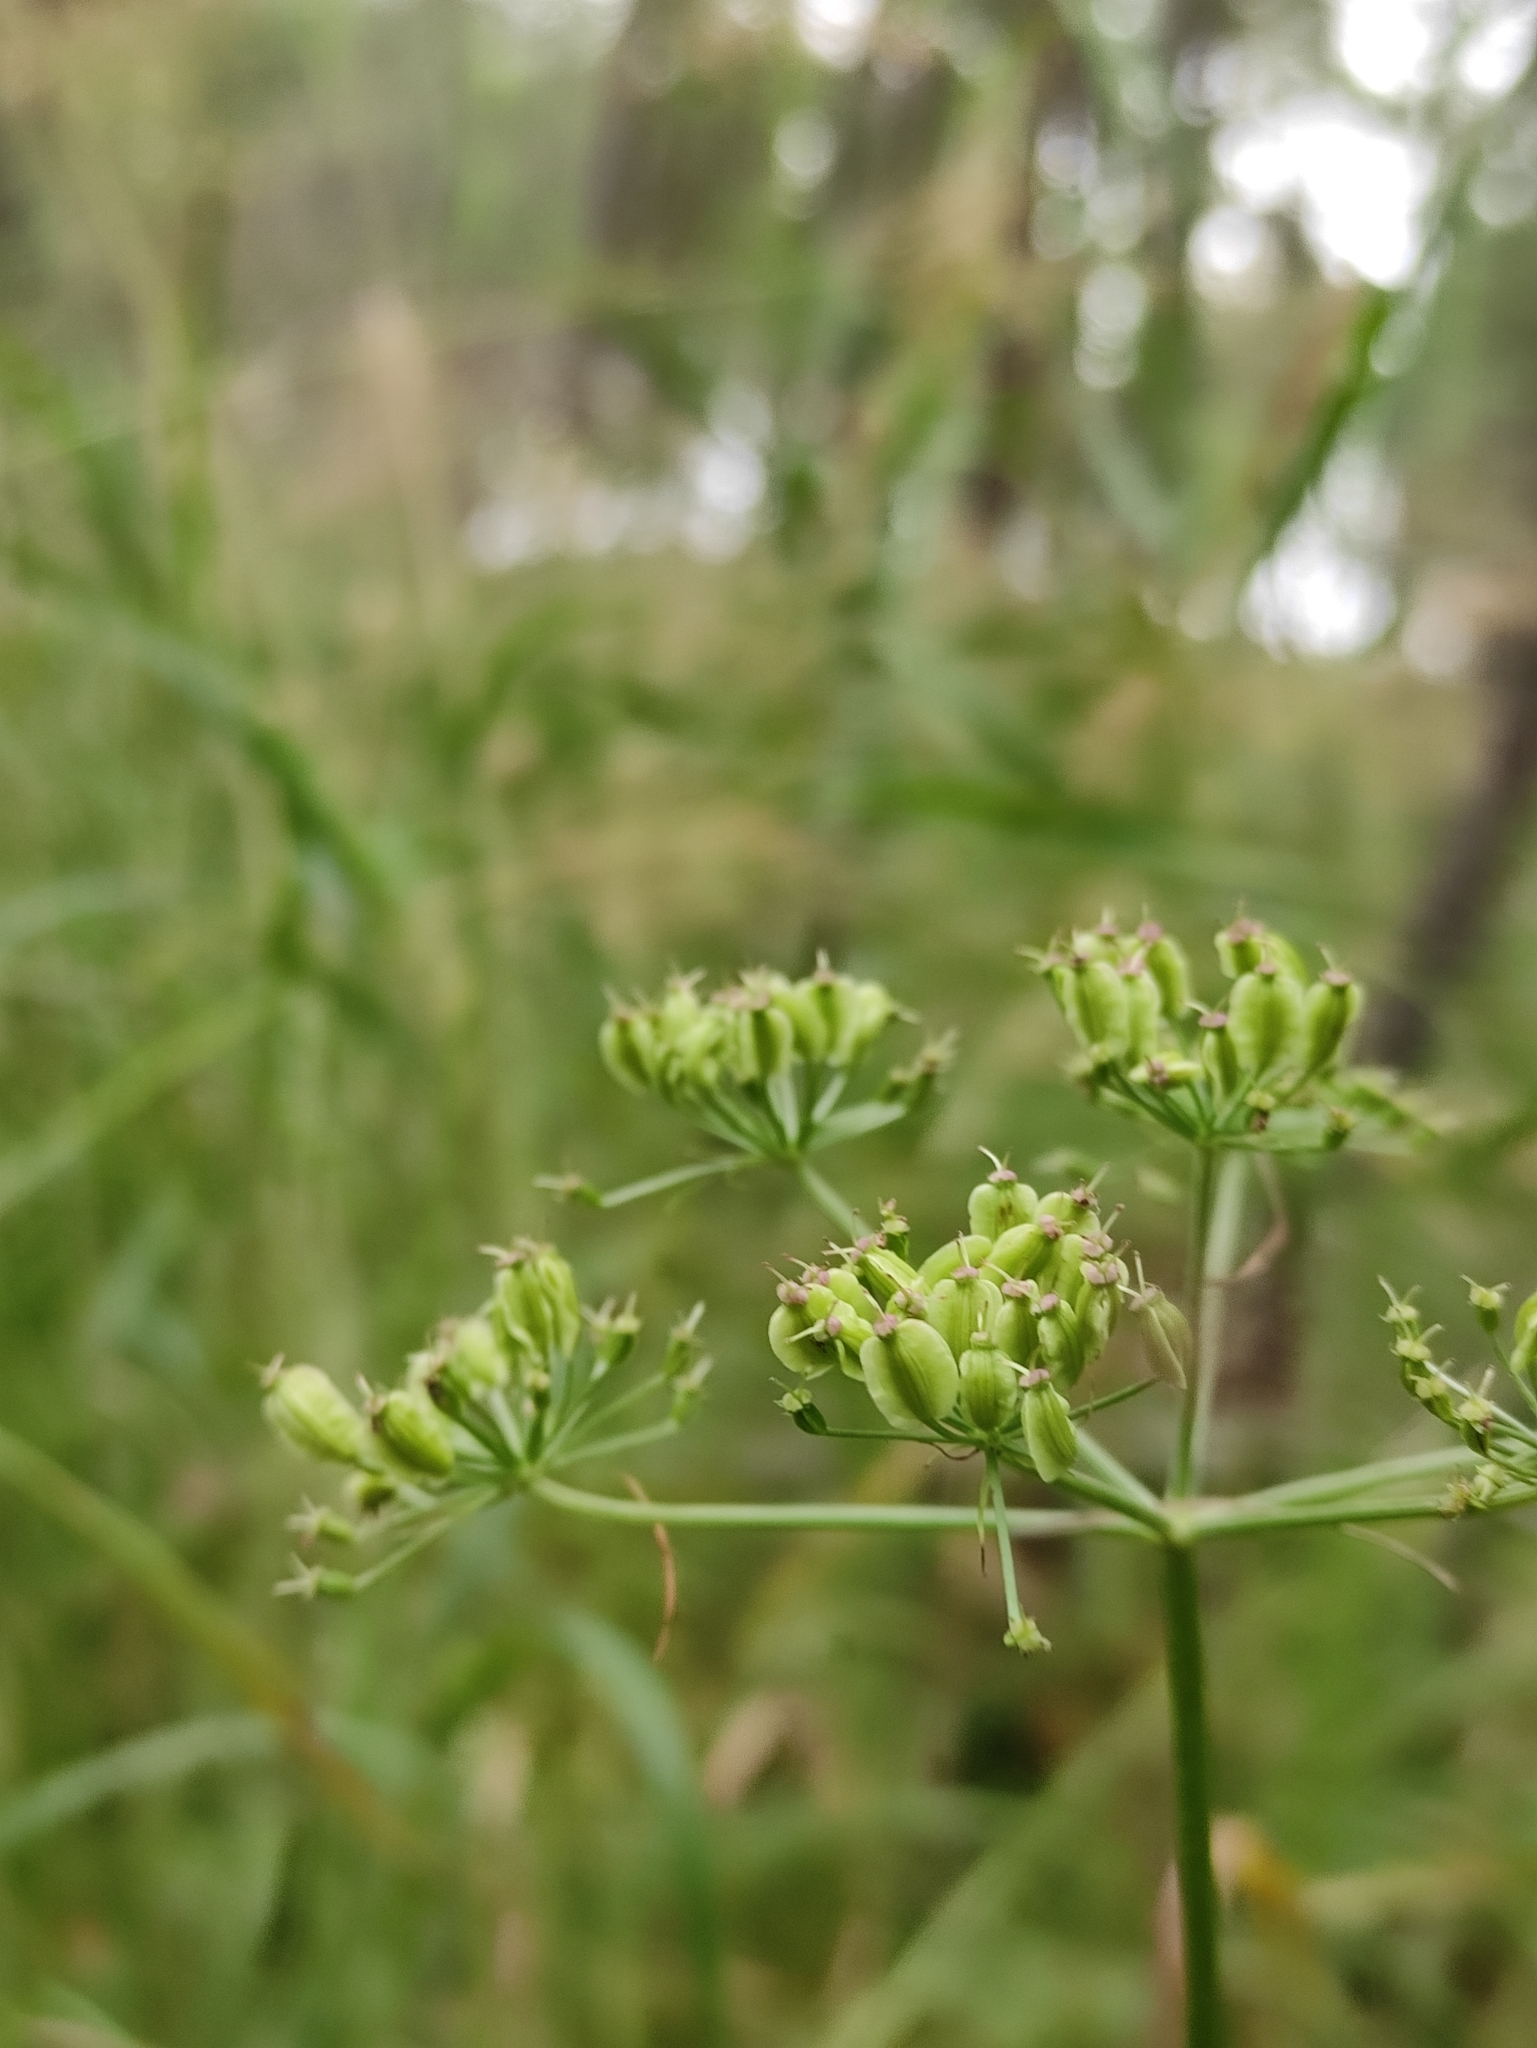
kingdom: Plantae
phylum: Tracheophyta
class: Magnoliopsida
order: Apiales
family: Apiaceae
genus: Ostericum
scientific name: Ostericum tenuifolium
